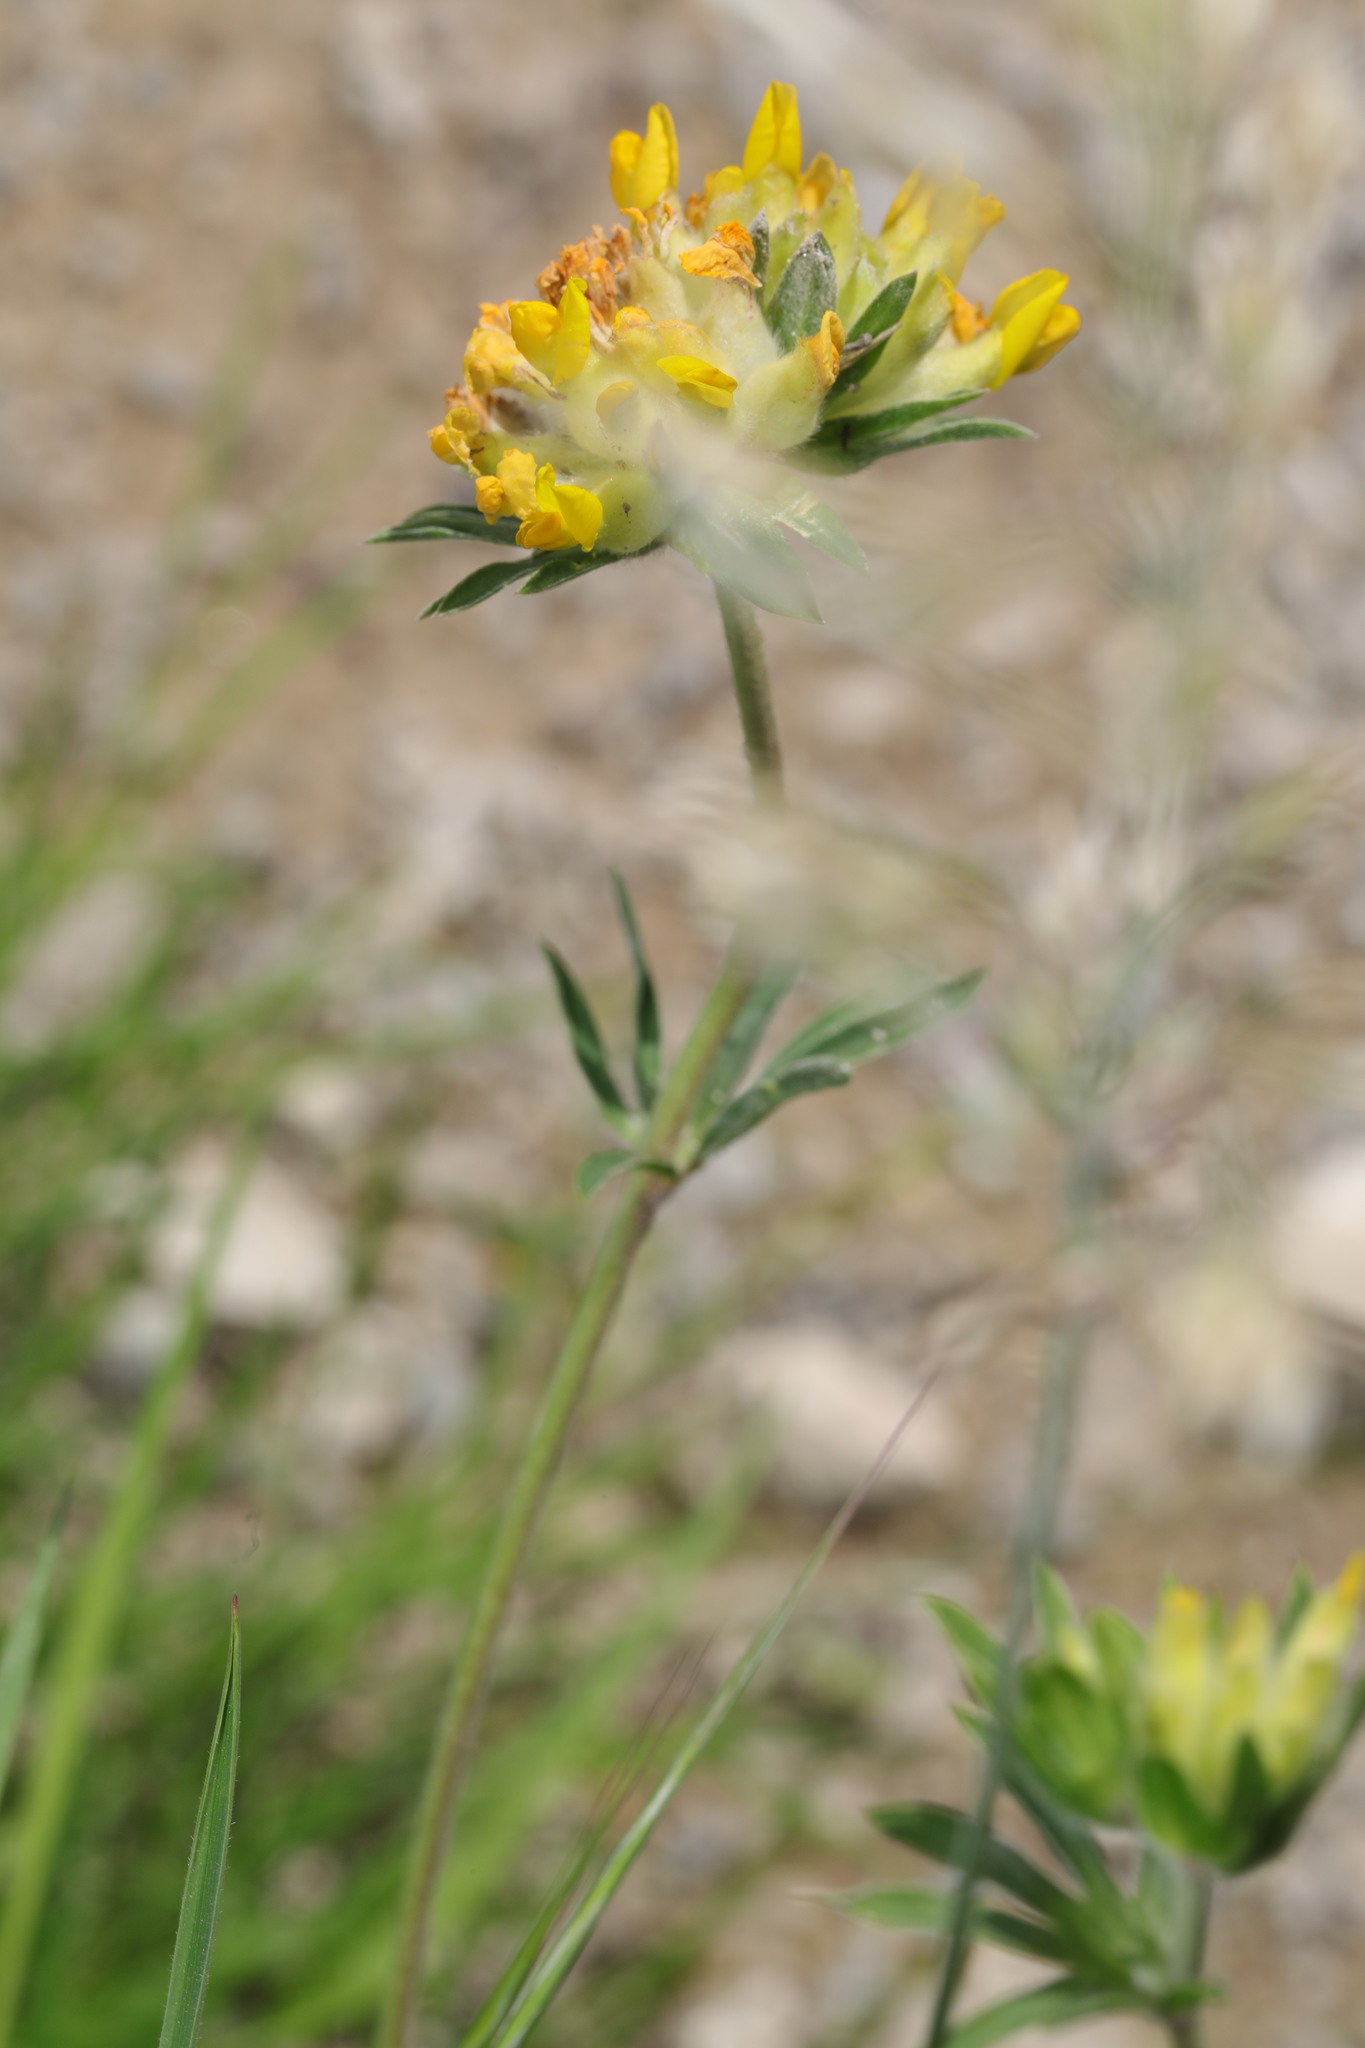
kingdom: Plantae
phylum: Tracheophyta
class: Magnoliopsida
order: Fabales
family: Fabaceae
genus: Anthyllis
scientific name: Anthyllis vulneraria
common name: Kidney vetch
